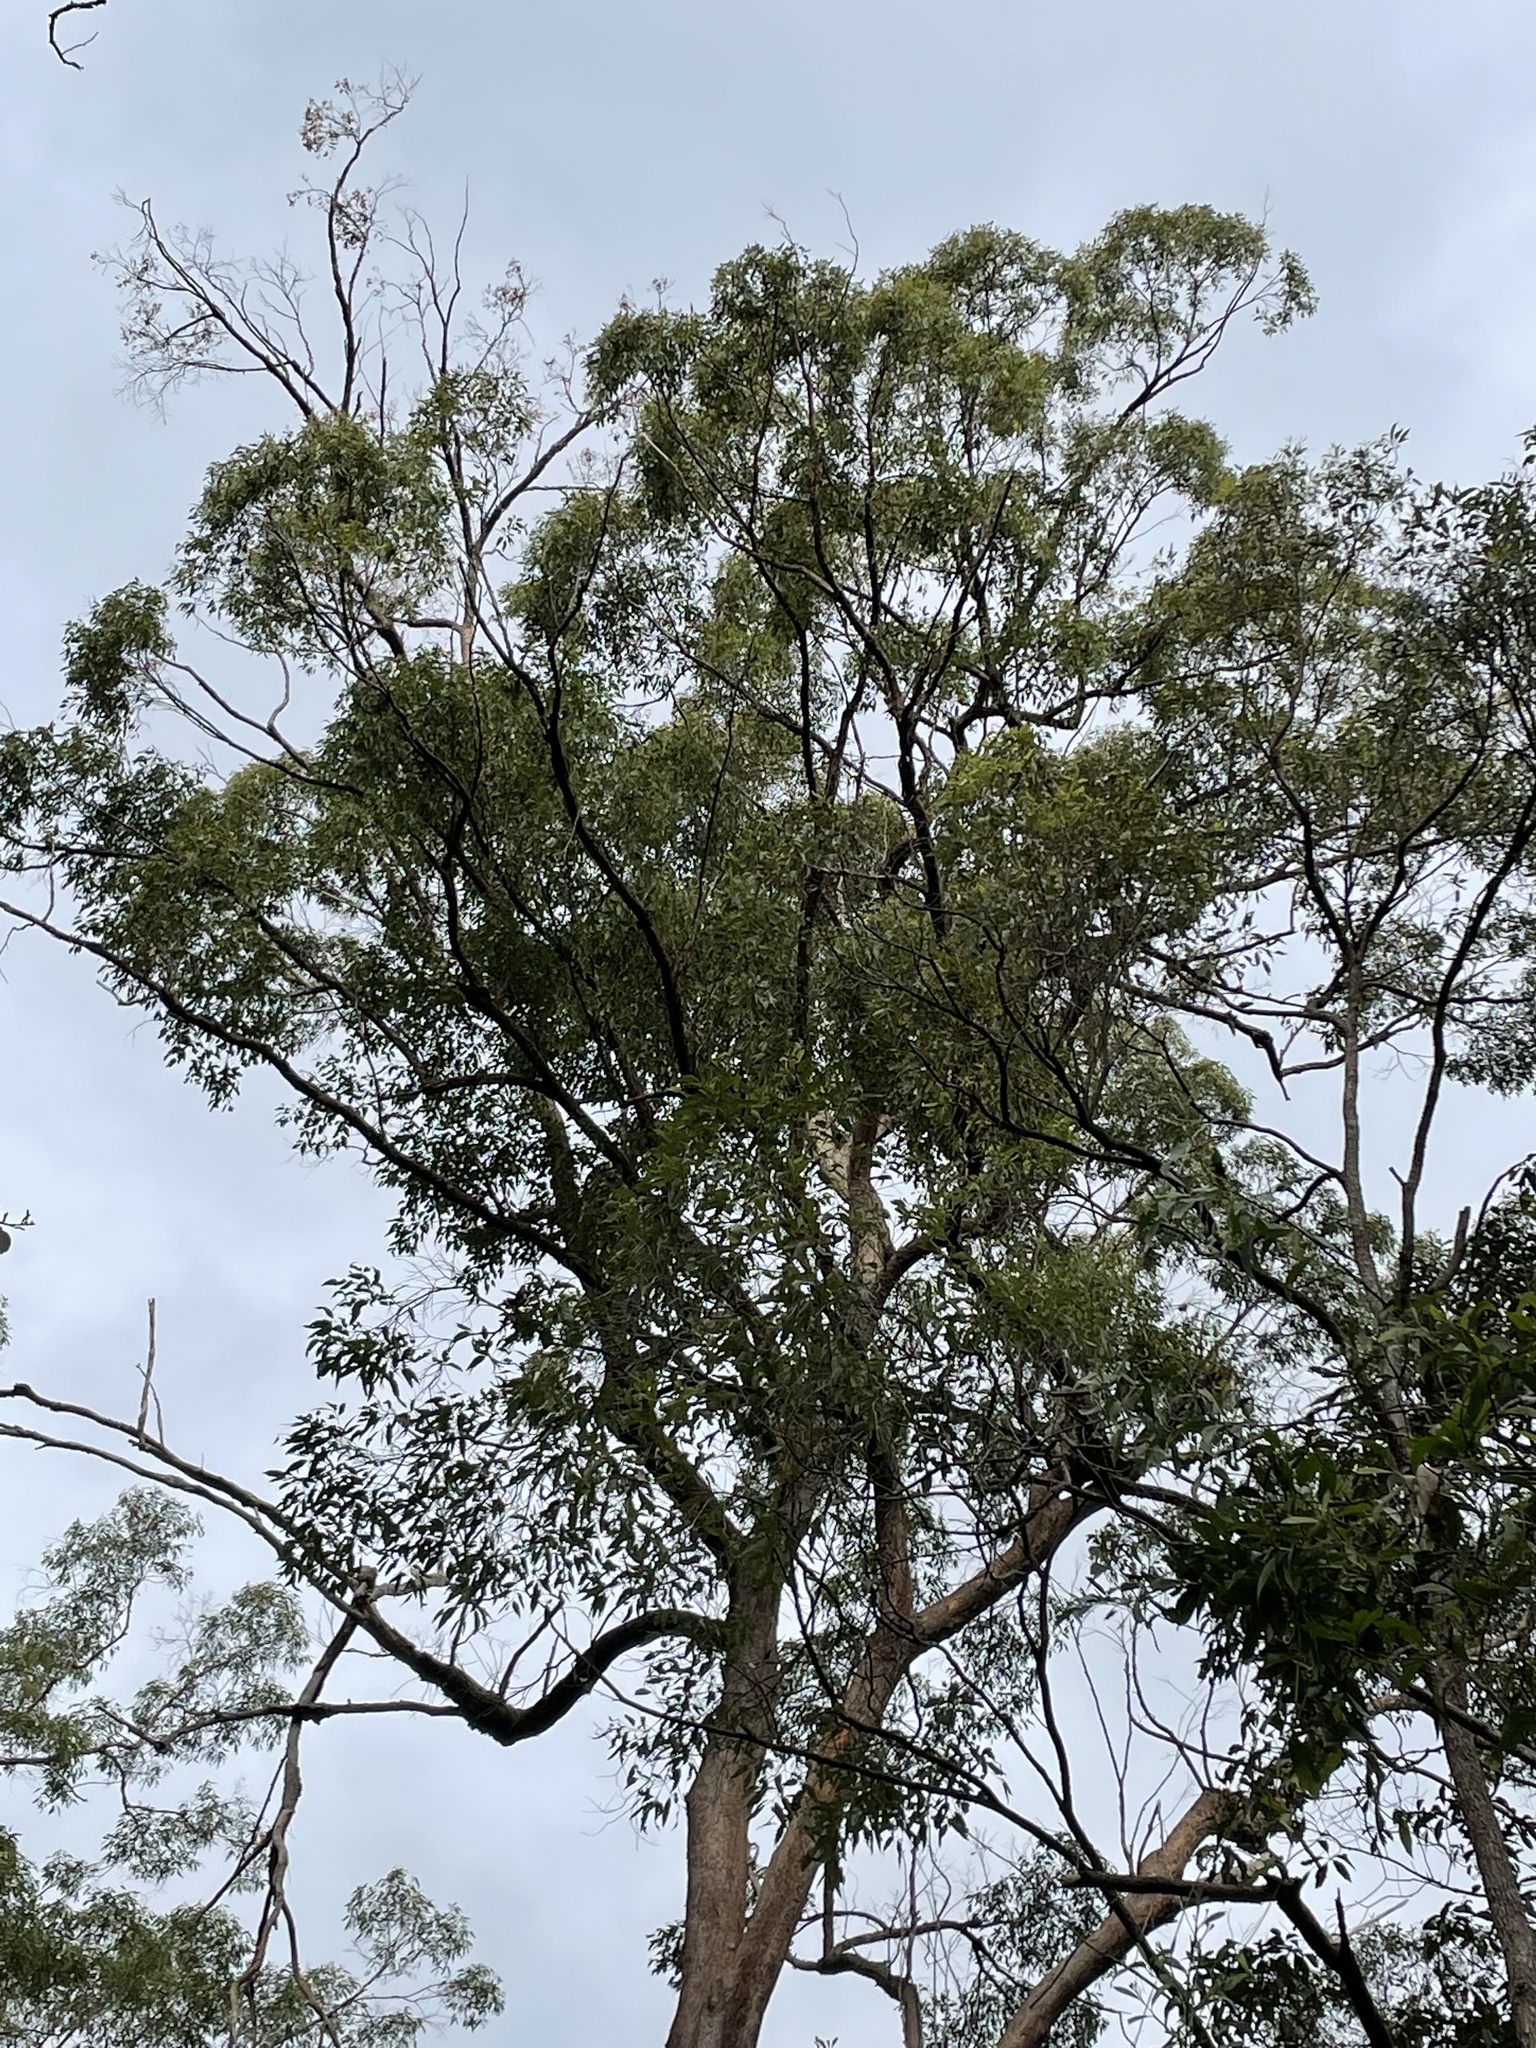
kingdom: Plantae
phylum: Tracheophyta
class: Magnoliopsida
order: Myrtales
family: Myrtaceae
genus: Eucalyptus
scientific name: Eucalyptus microcorys
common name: Tallowwood
